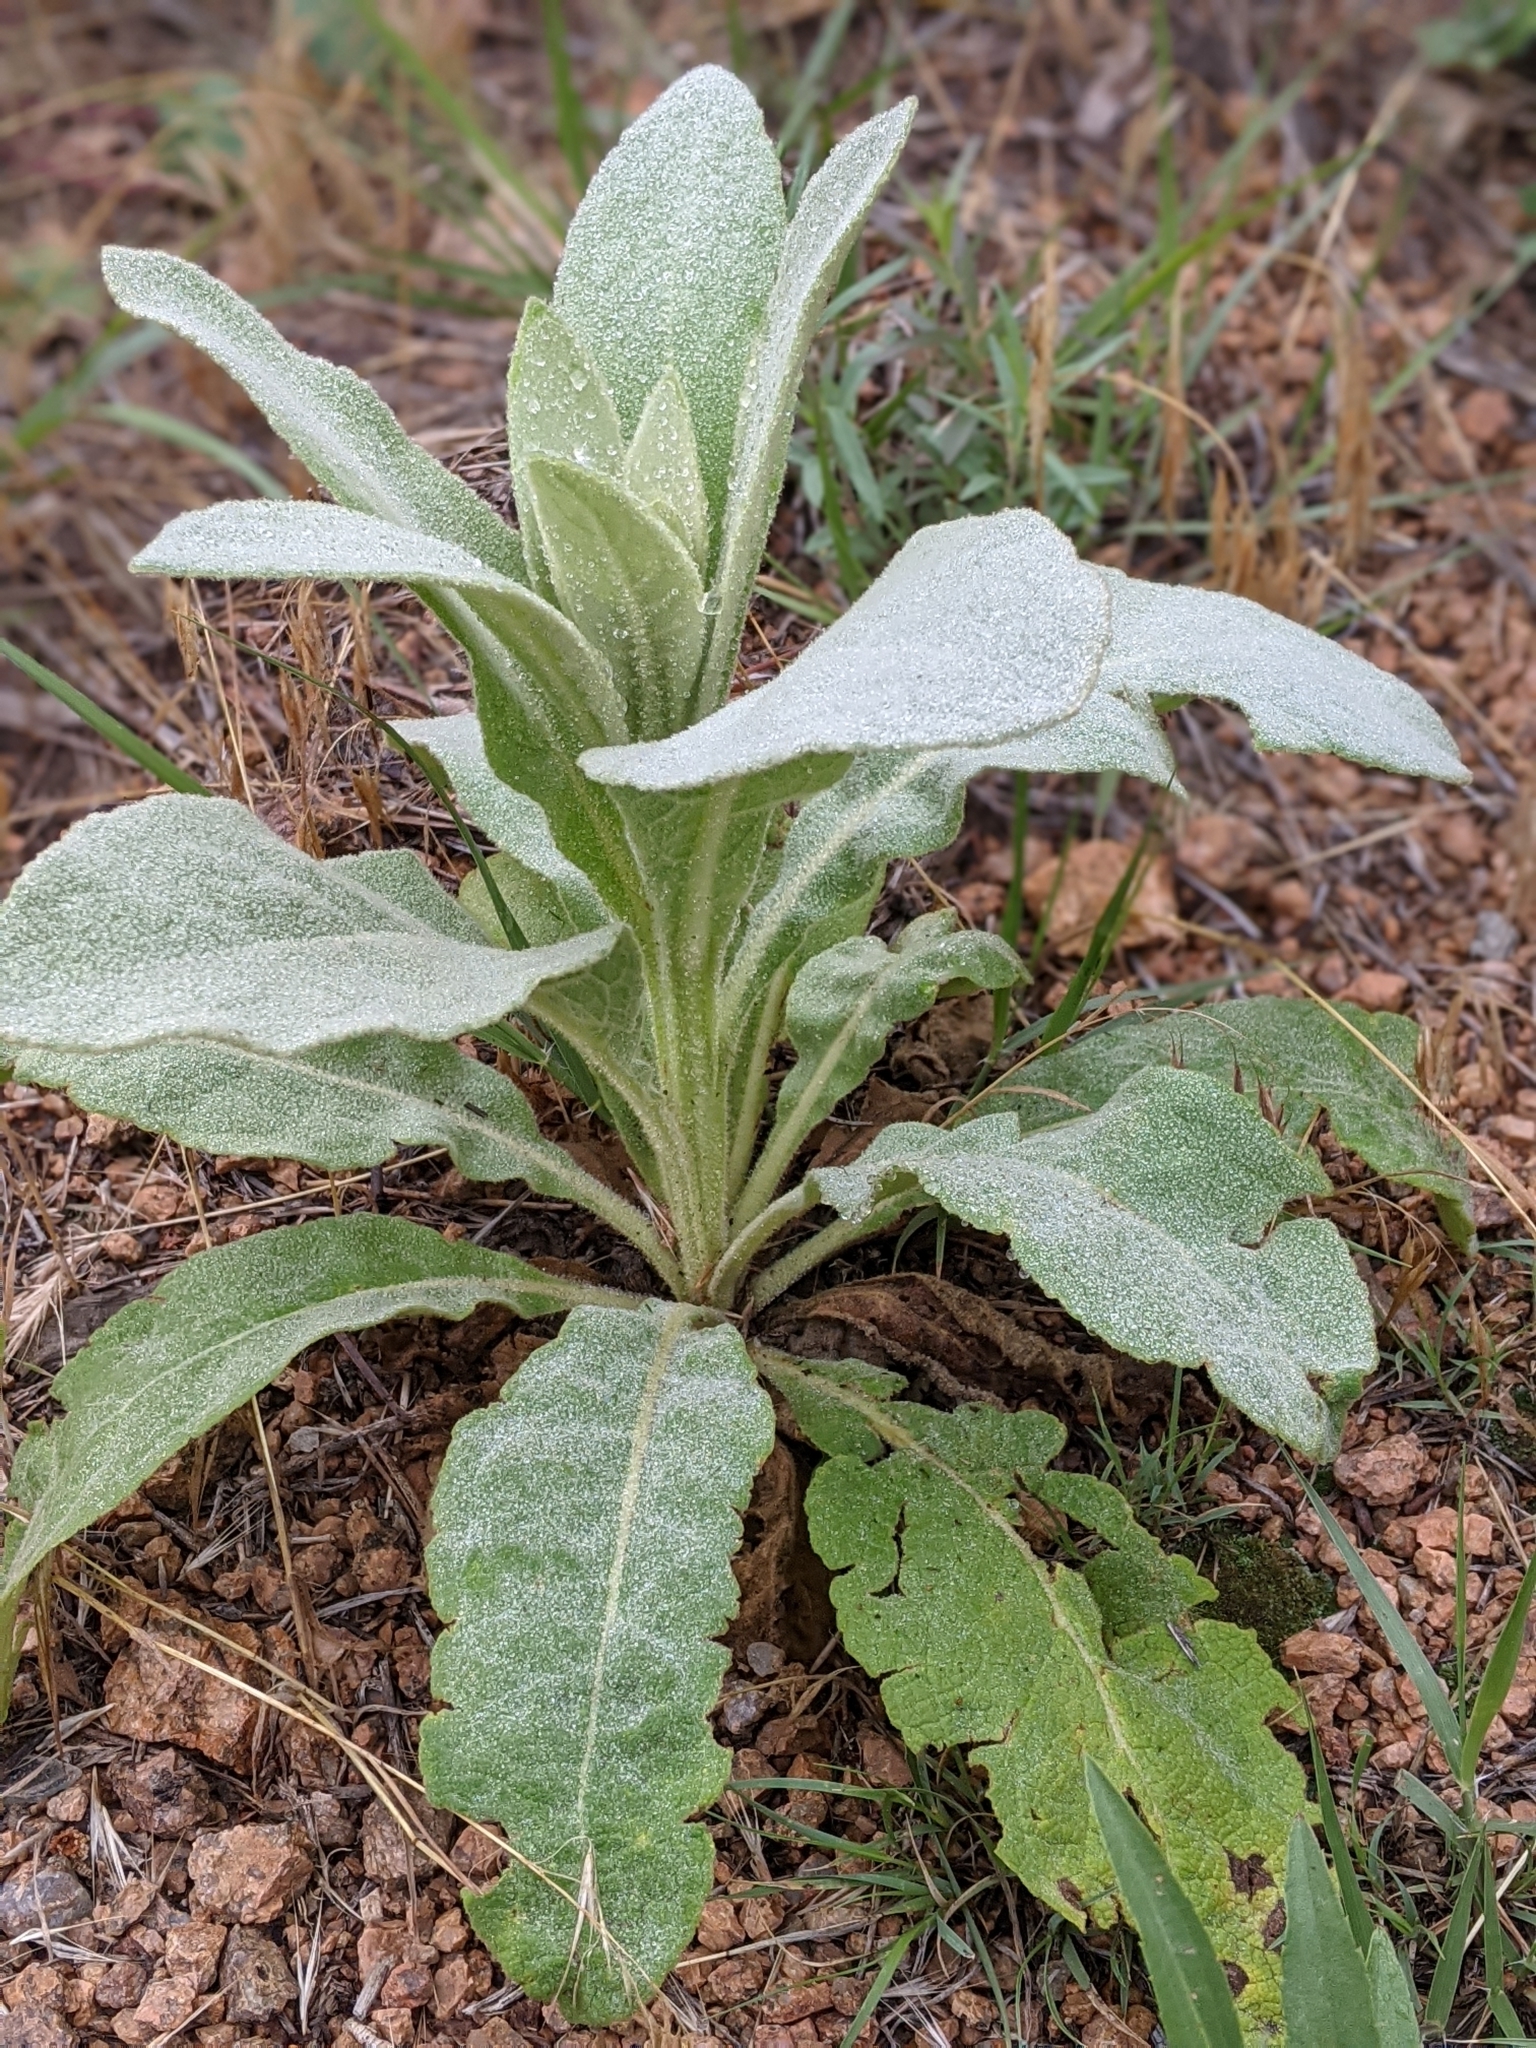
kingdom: Plantae
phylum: Tracheophyta
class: Magnoliopsida
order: Lamiales
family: Scrophulariaceae
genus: Verbascum
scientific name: Verbascum thapsus
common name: Common mullein
